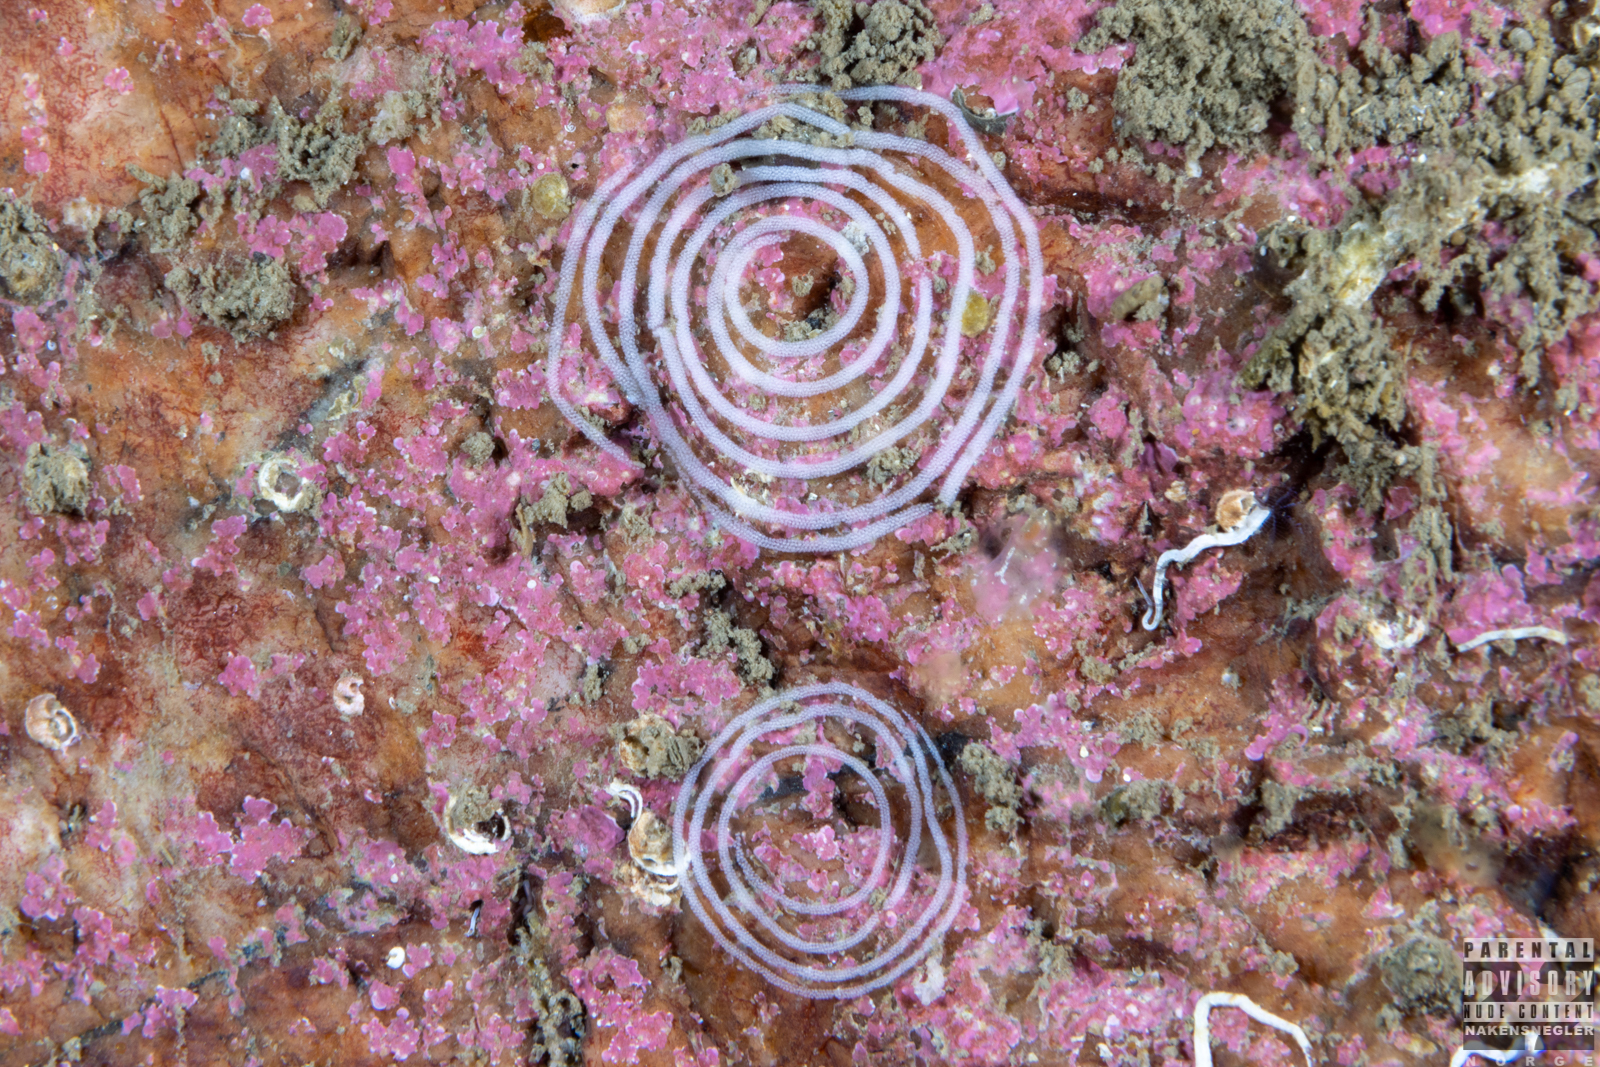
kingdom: Animalia
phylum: Mollusca
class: Gastropoda
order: Nudibranchia
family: Coryphellidae
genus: Coryphella
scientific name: Coryphella verrucosa
